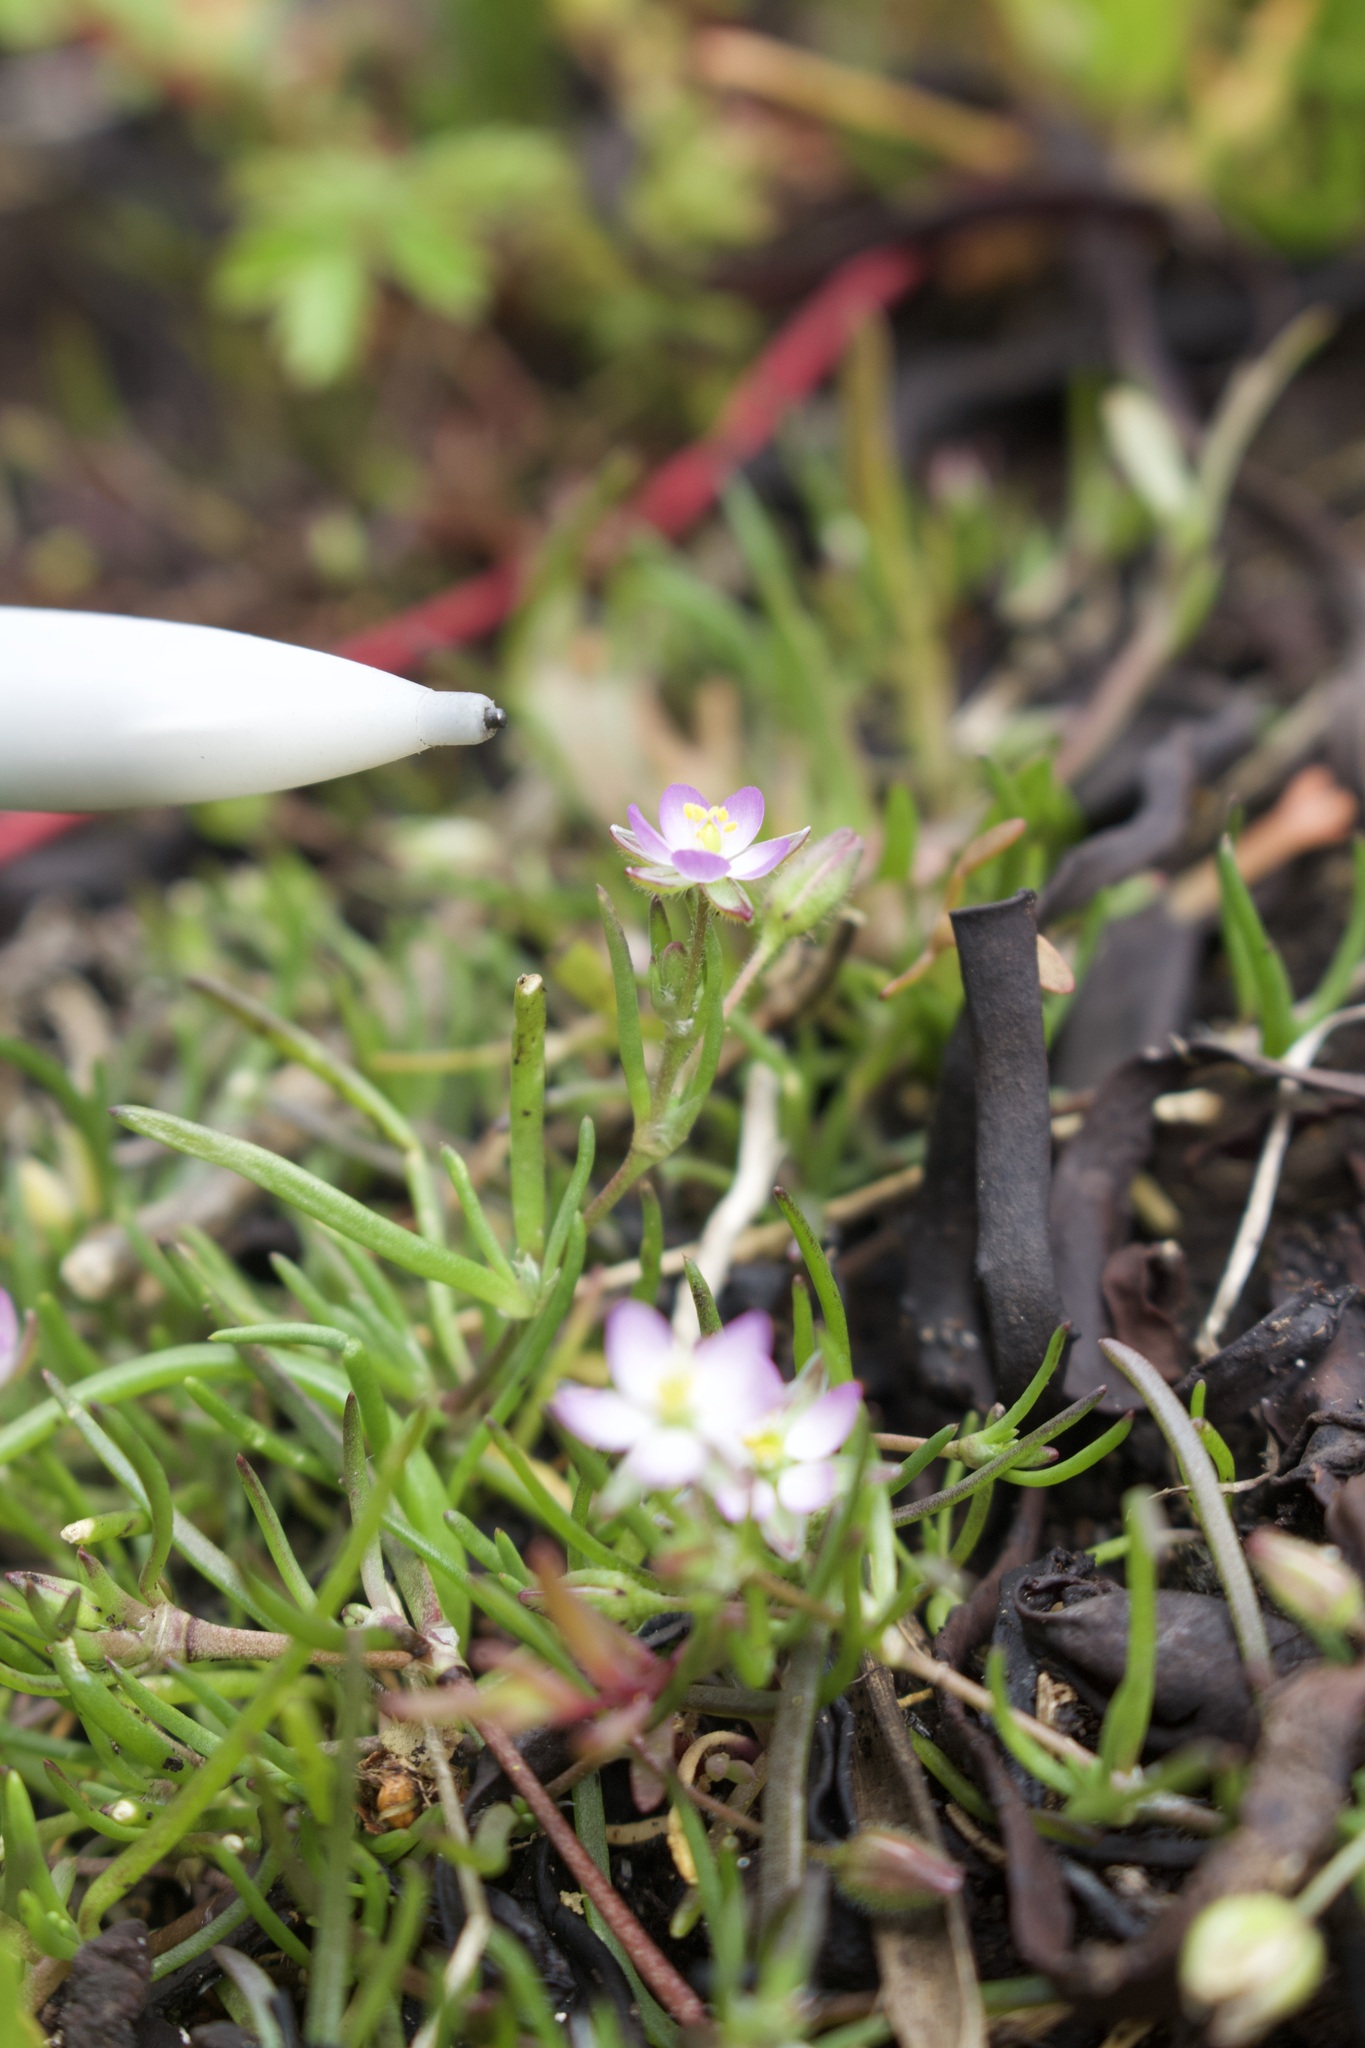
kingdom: Plantae
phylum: Tracheophyta
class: Magnoliopsida
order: Caryophyllales
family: Caryophyllaceae
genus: Spergularia
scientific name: Spergularia marina
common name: Lesser sea-spurrey
